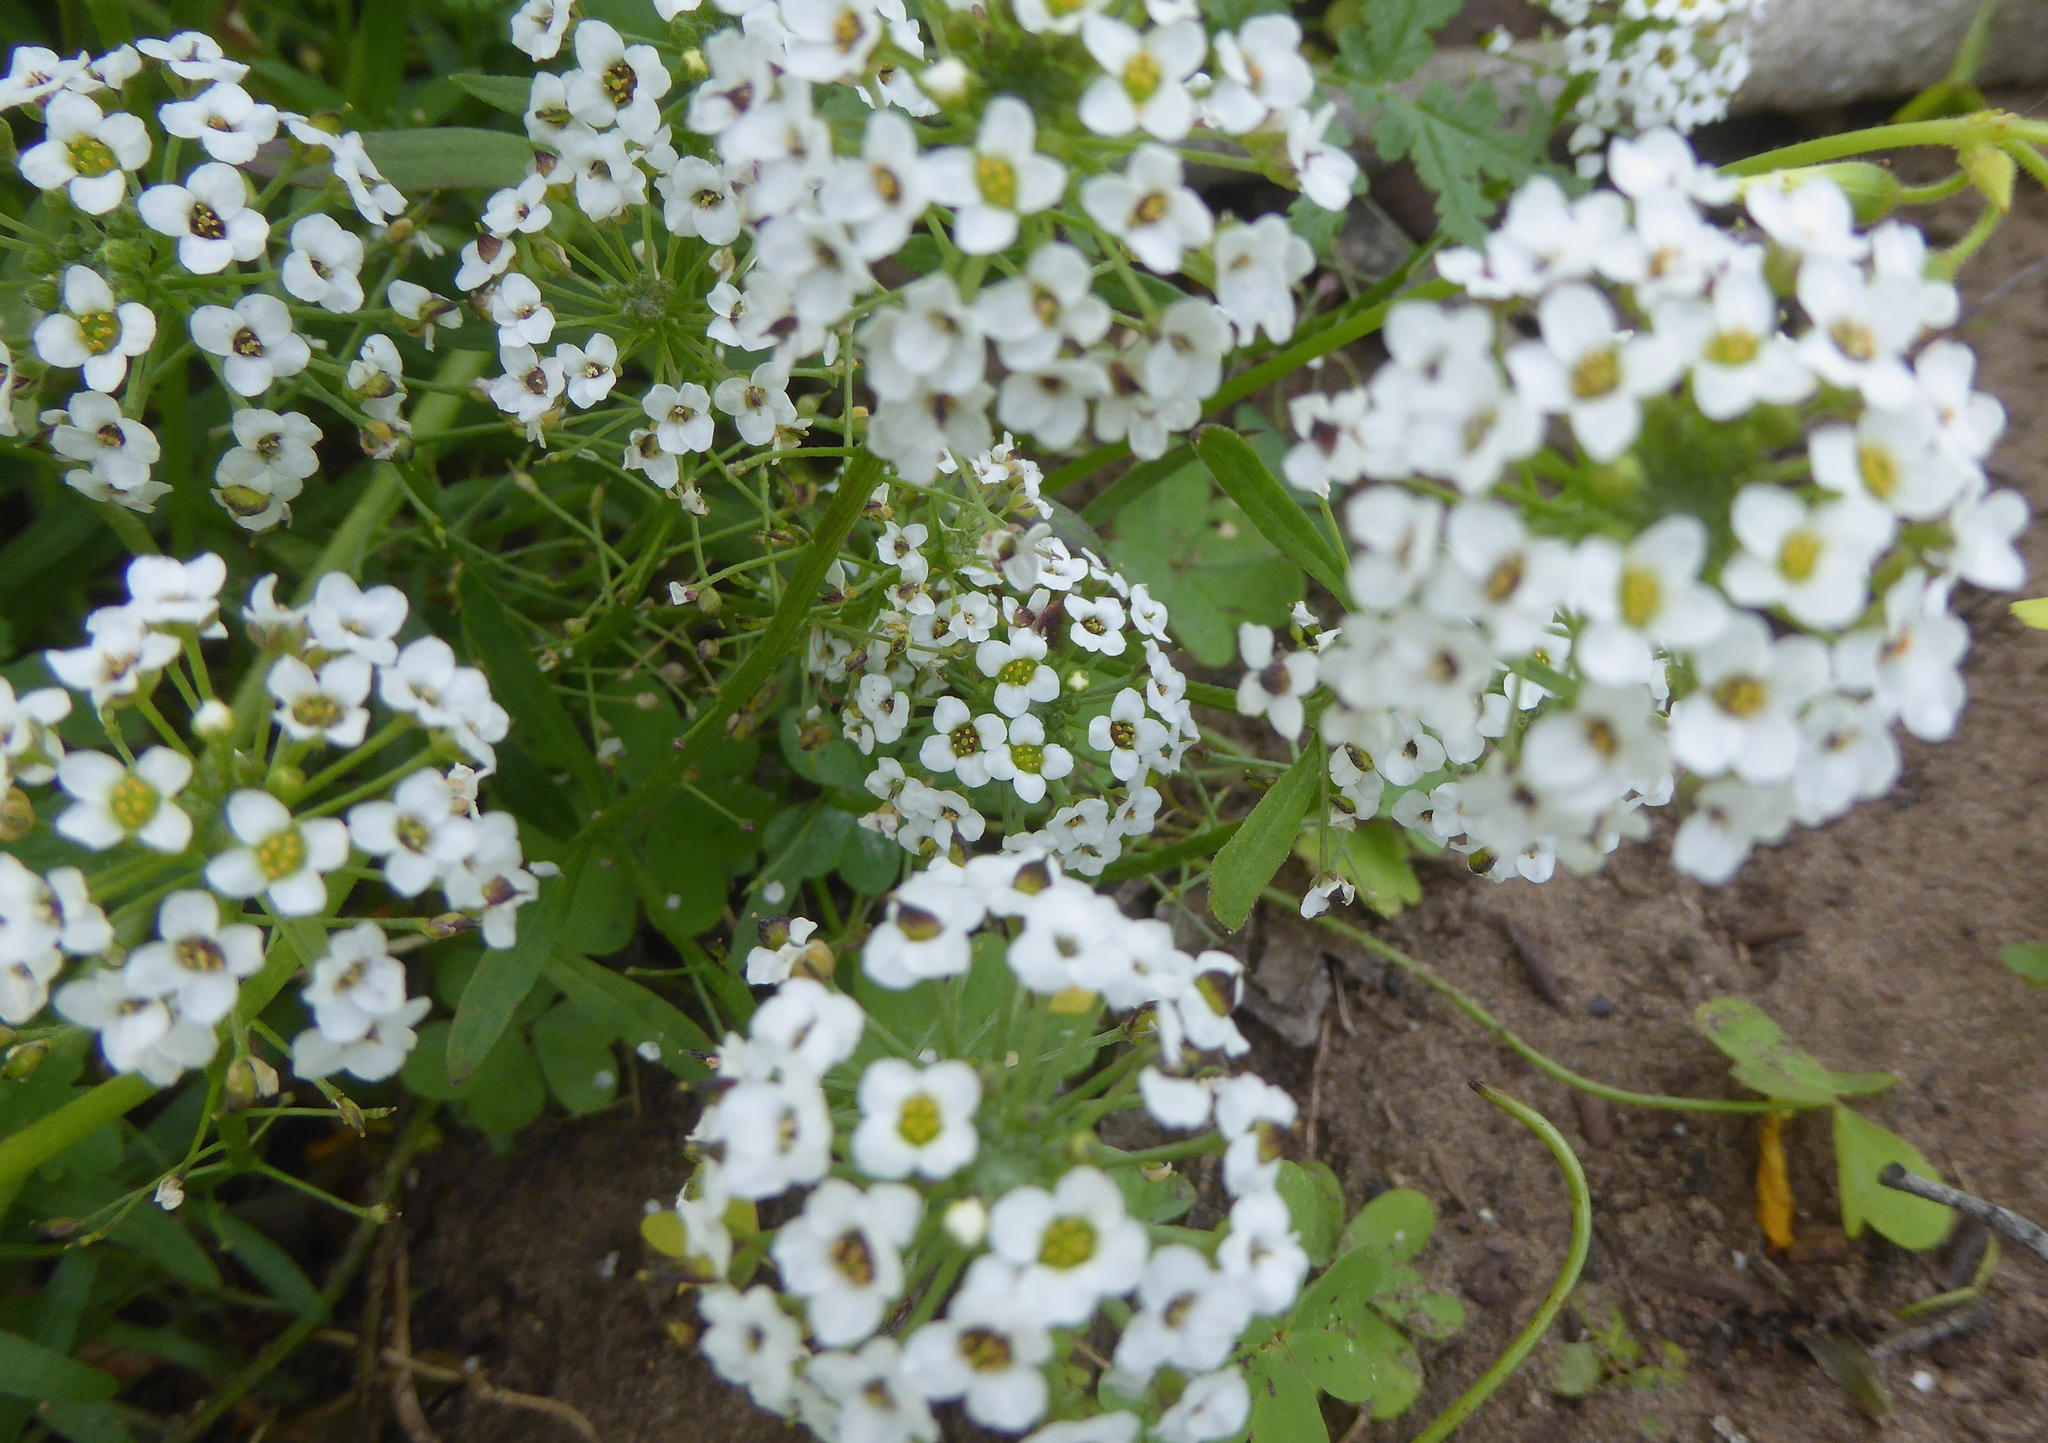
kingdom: Plantae
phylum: Tracheophyta
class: Magnoliopsida
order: Brassicales
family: Brassicaceae
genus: Lobularia
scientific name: Lobularia maritima
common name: Sweet alison
